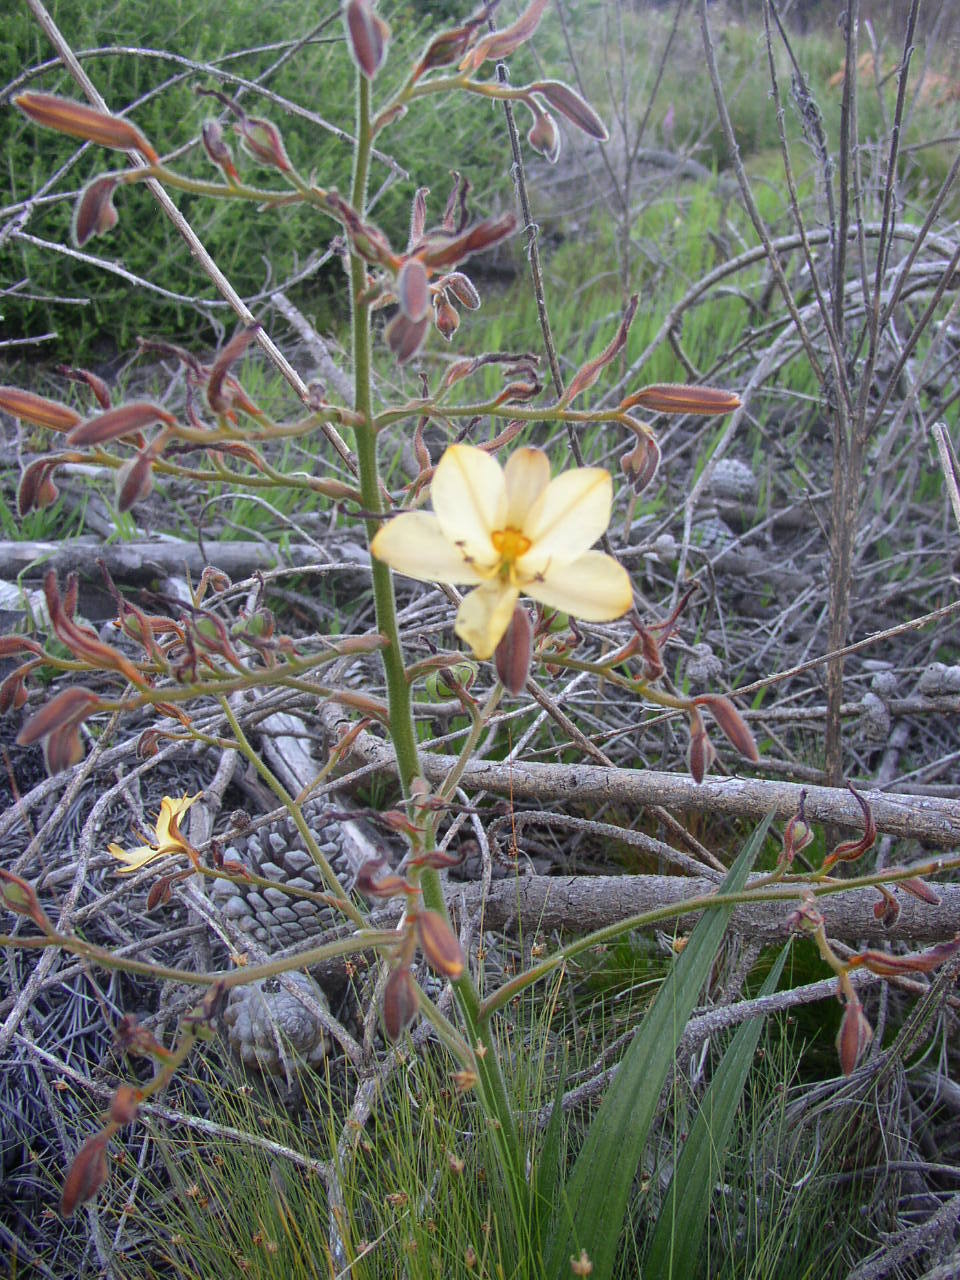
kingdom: Plantae
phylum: Tracheophyta
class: Liliopsida
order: Commelinales
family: Haemodoraceae
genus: Wachendorfia
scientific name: Wachendorfia paniculata
